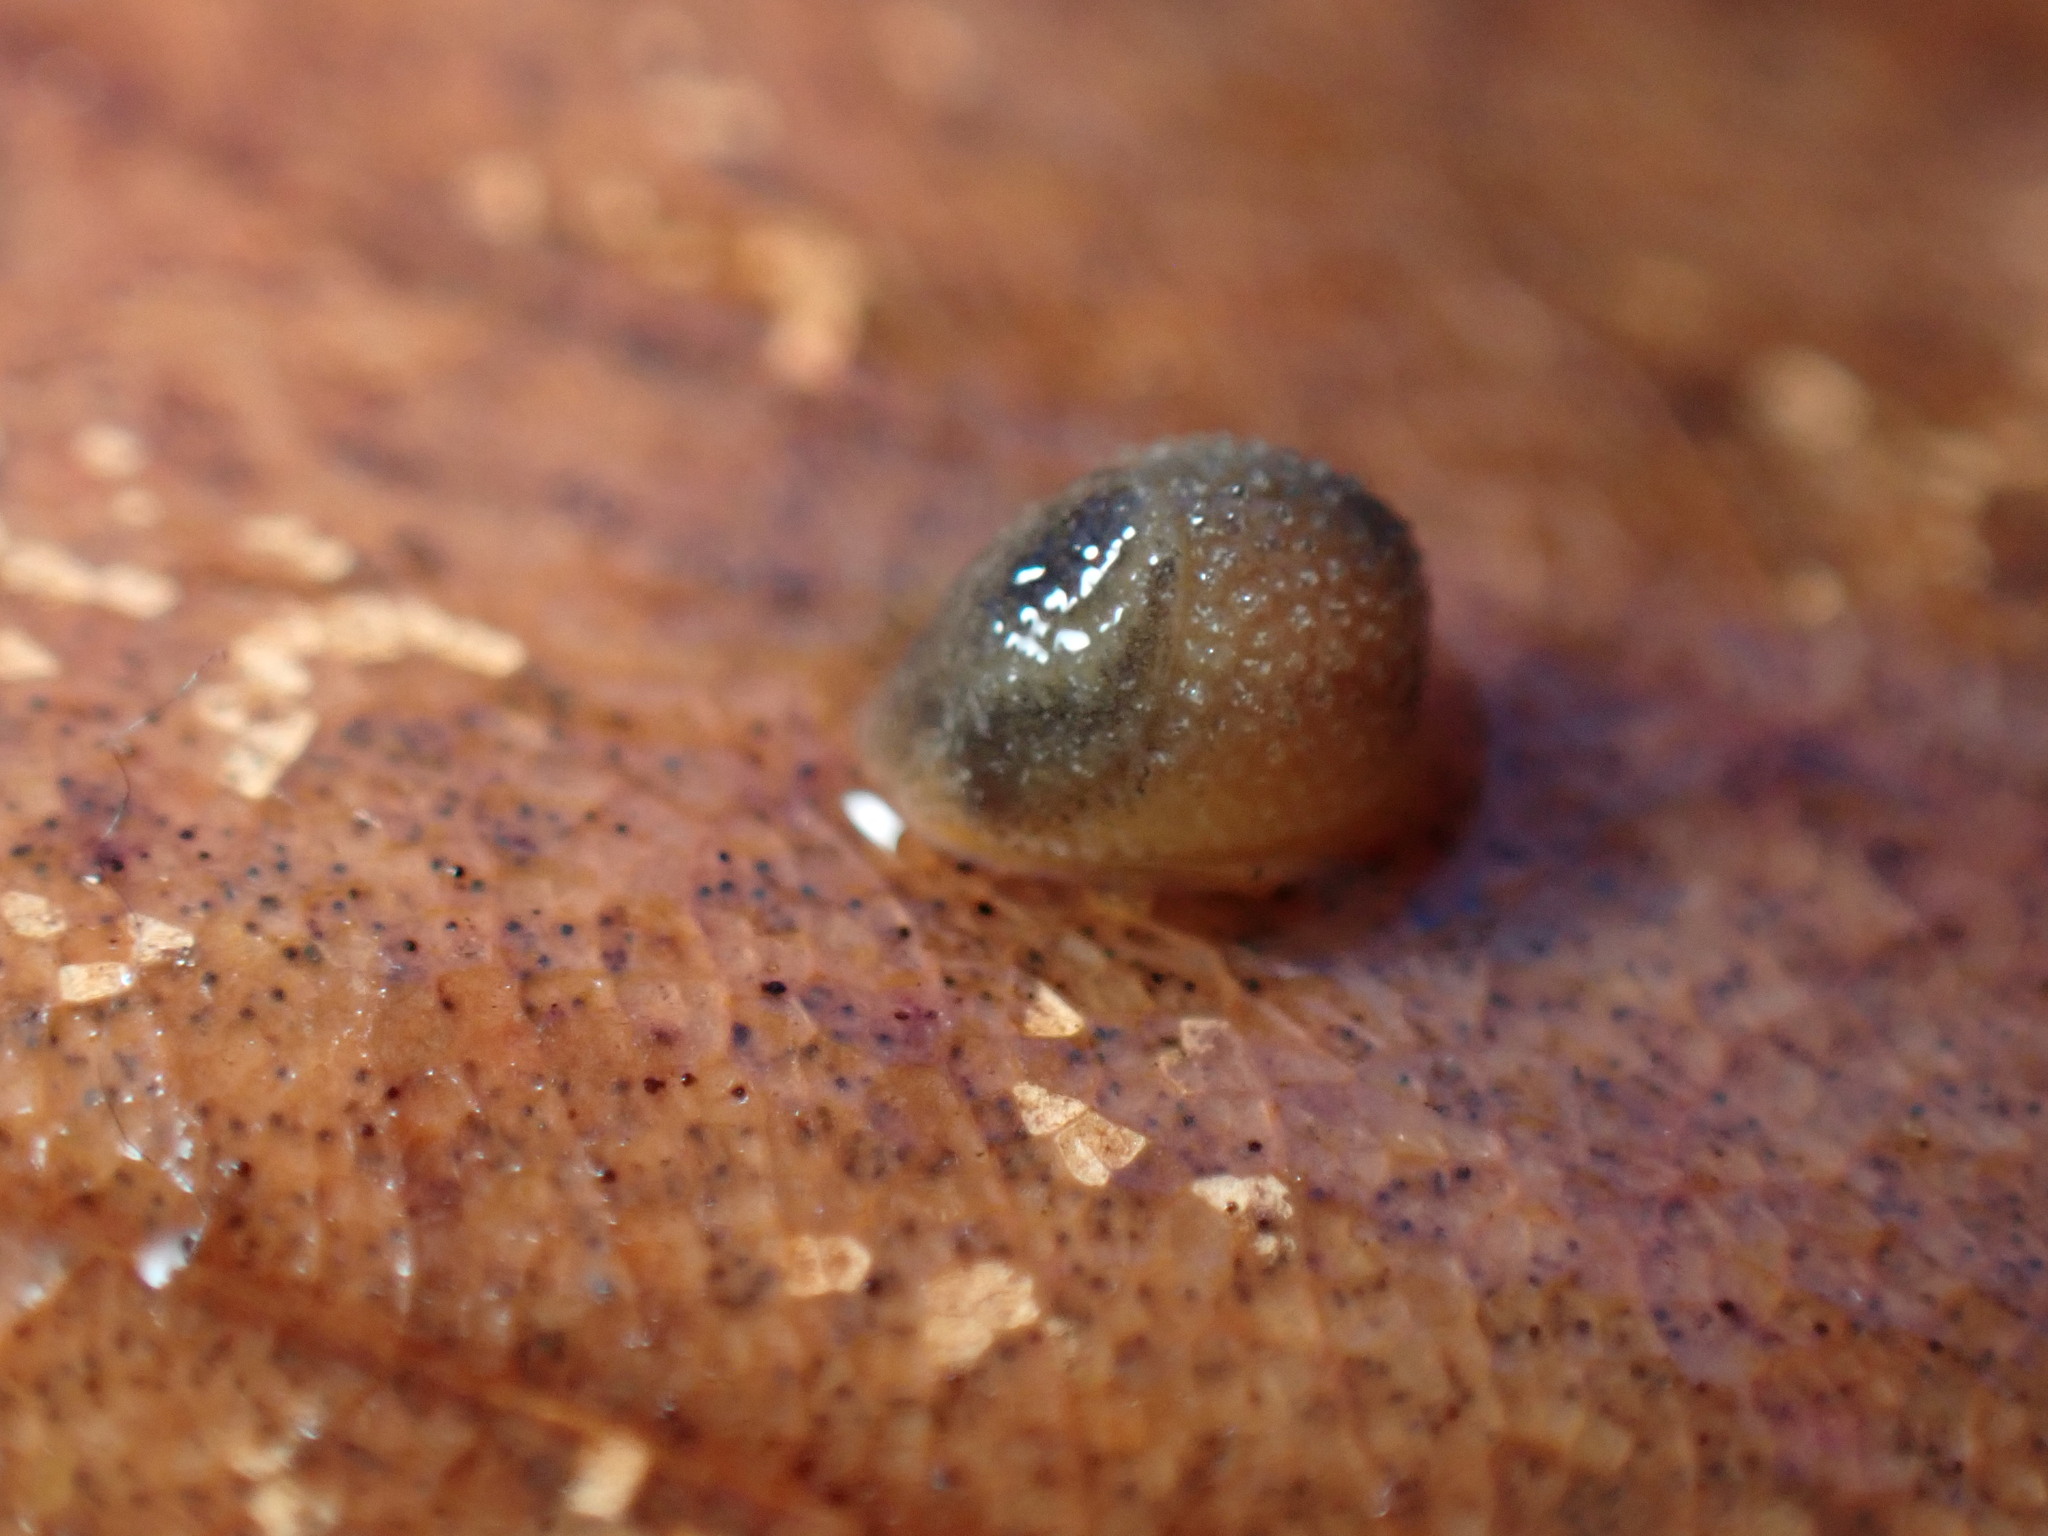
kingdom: Animalia
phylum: Mollusca
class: Gastropoda
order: Stylommatophora
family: Arionidae
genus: Arion
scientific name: Arion intermedius
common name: Hedgehog slug
